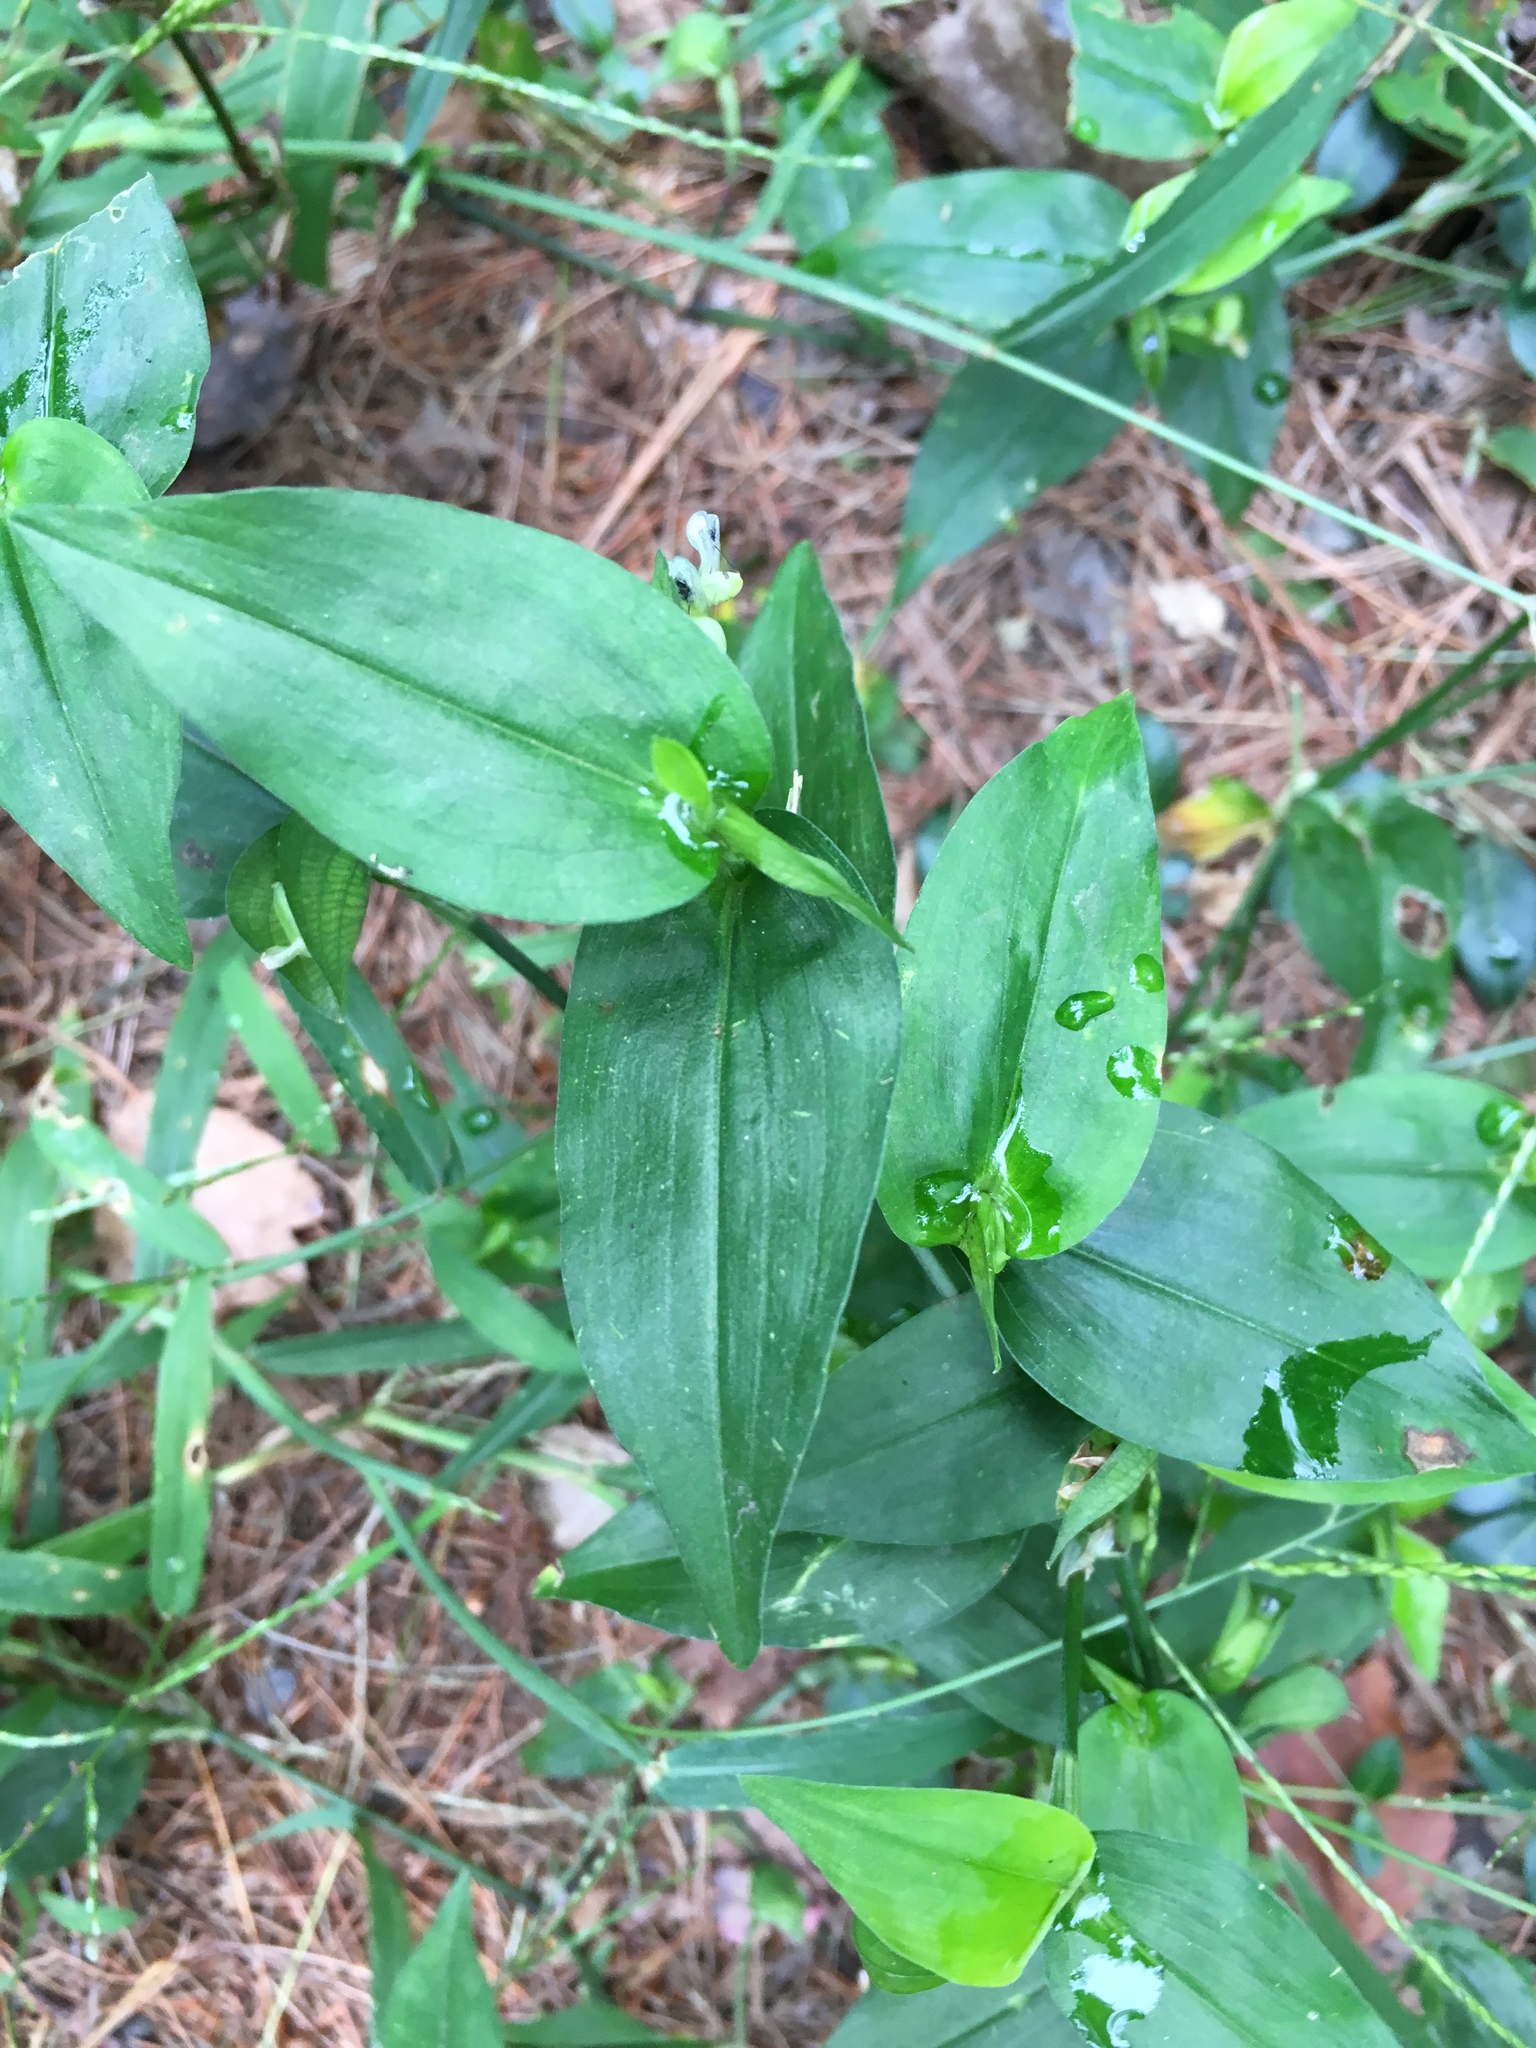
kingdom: Plantae
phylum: Tracheophyta
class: Liliopsida
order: Commelinales
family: Commelinaceae
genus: Commelina
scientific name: Commelina communis
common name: Asiatic dayflower
